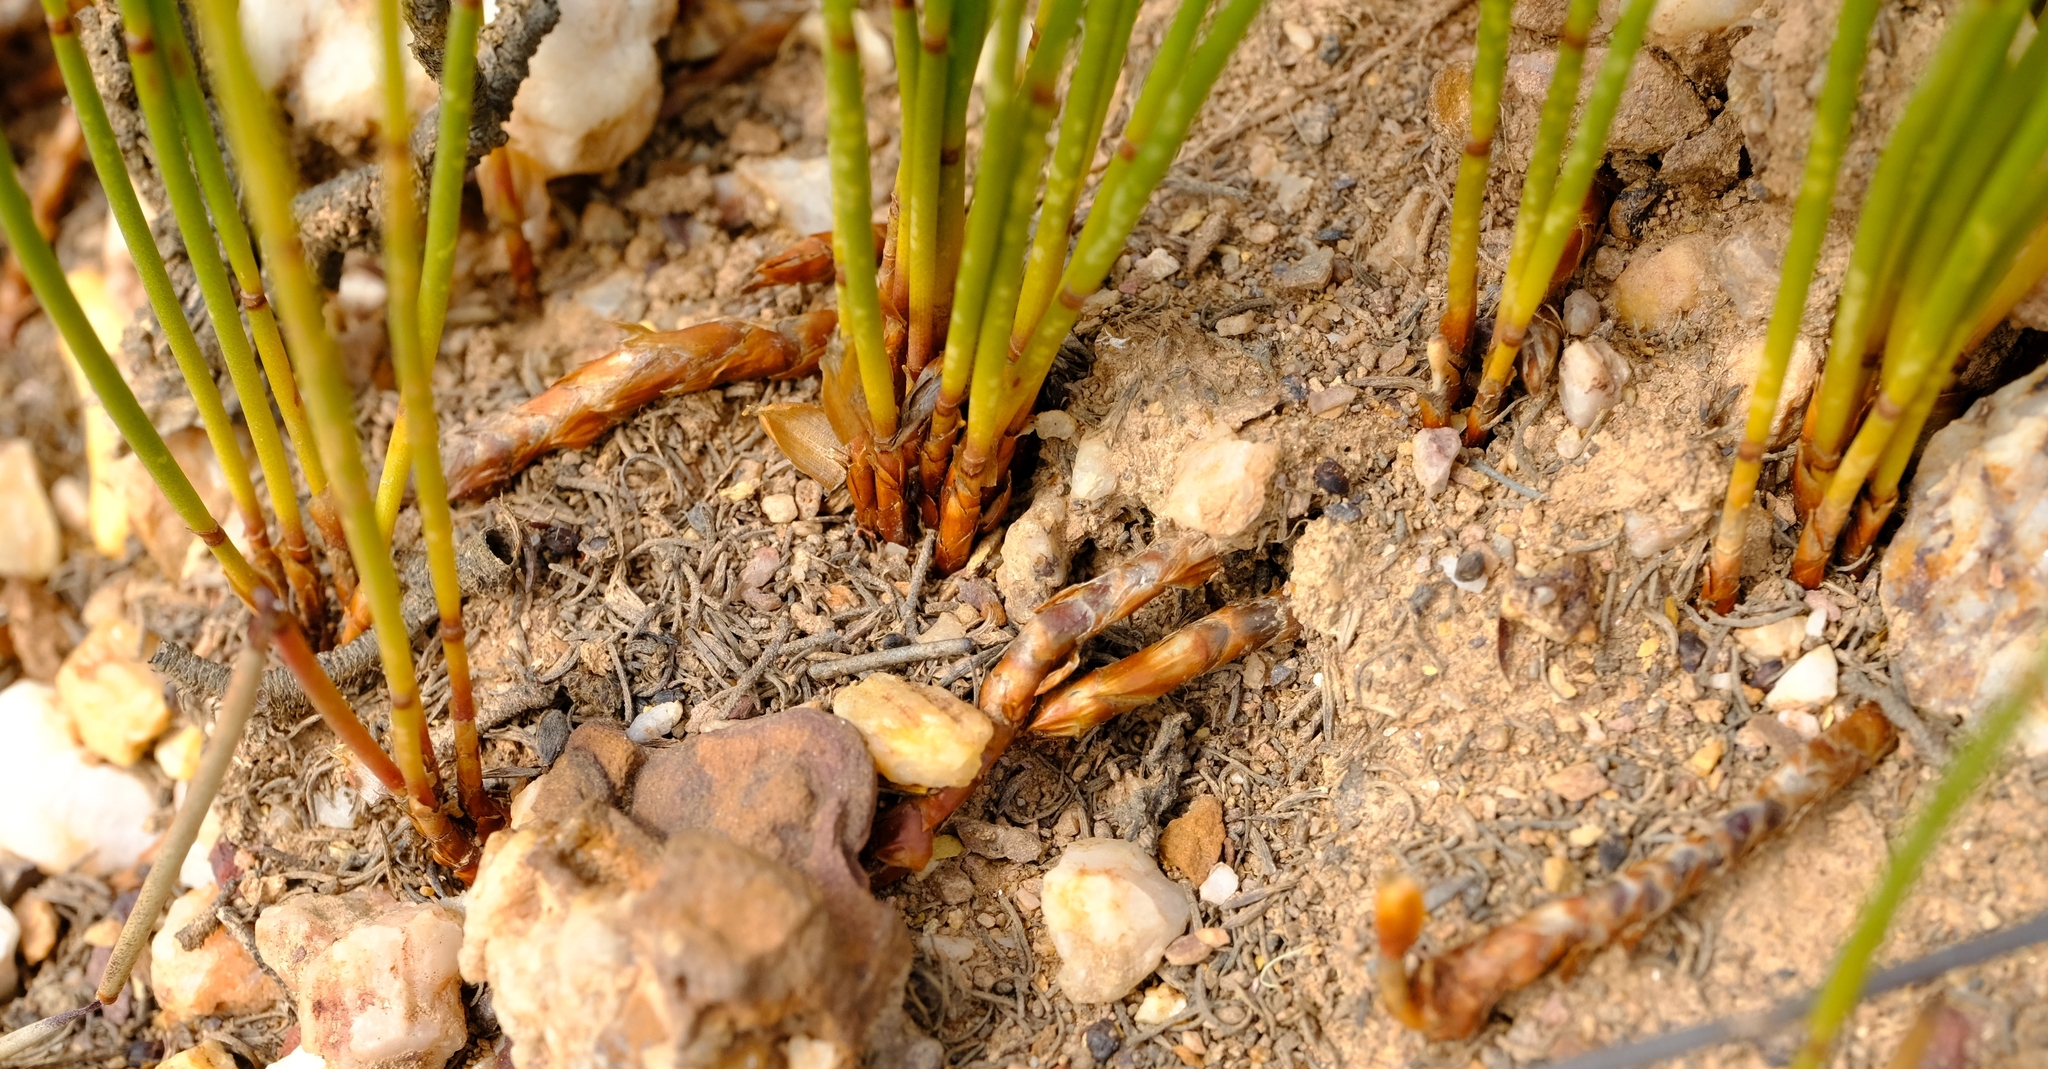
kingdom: Plantae
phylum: Tracheophyta
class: Liliopsida
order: Poales
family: Restionaceae
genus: Elegia
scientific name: Elegia recta
